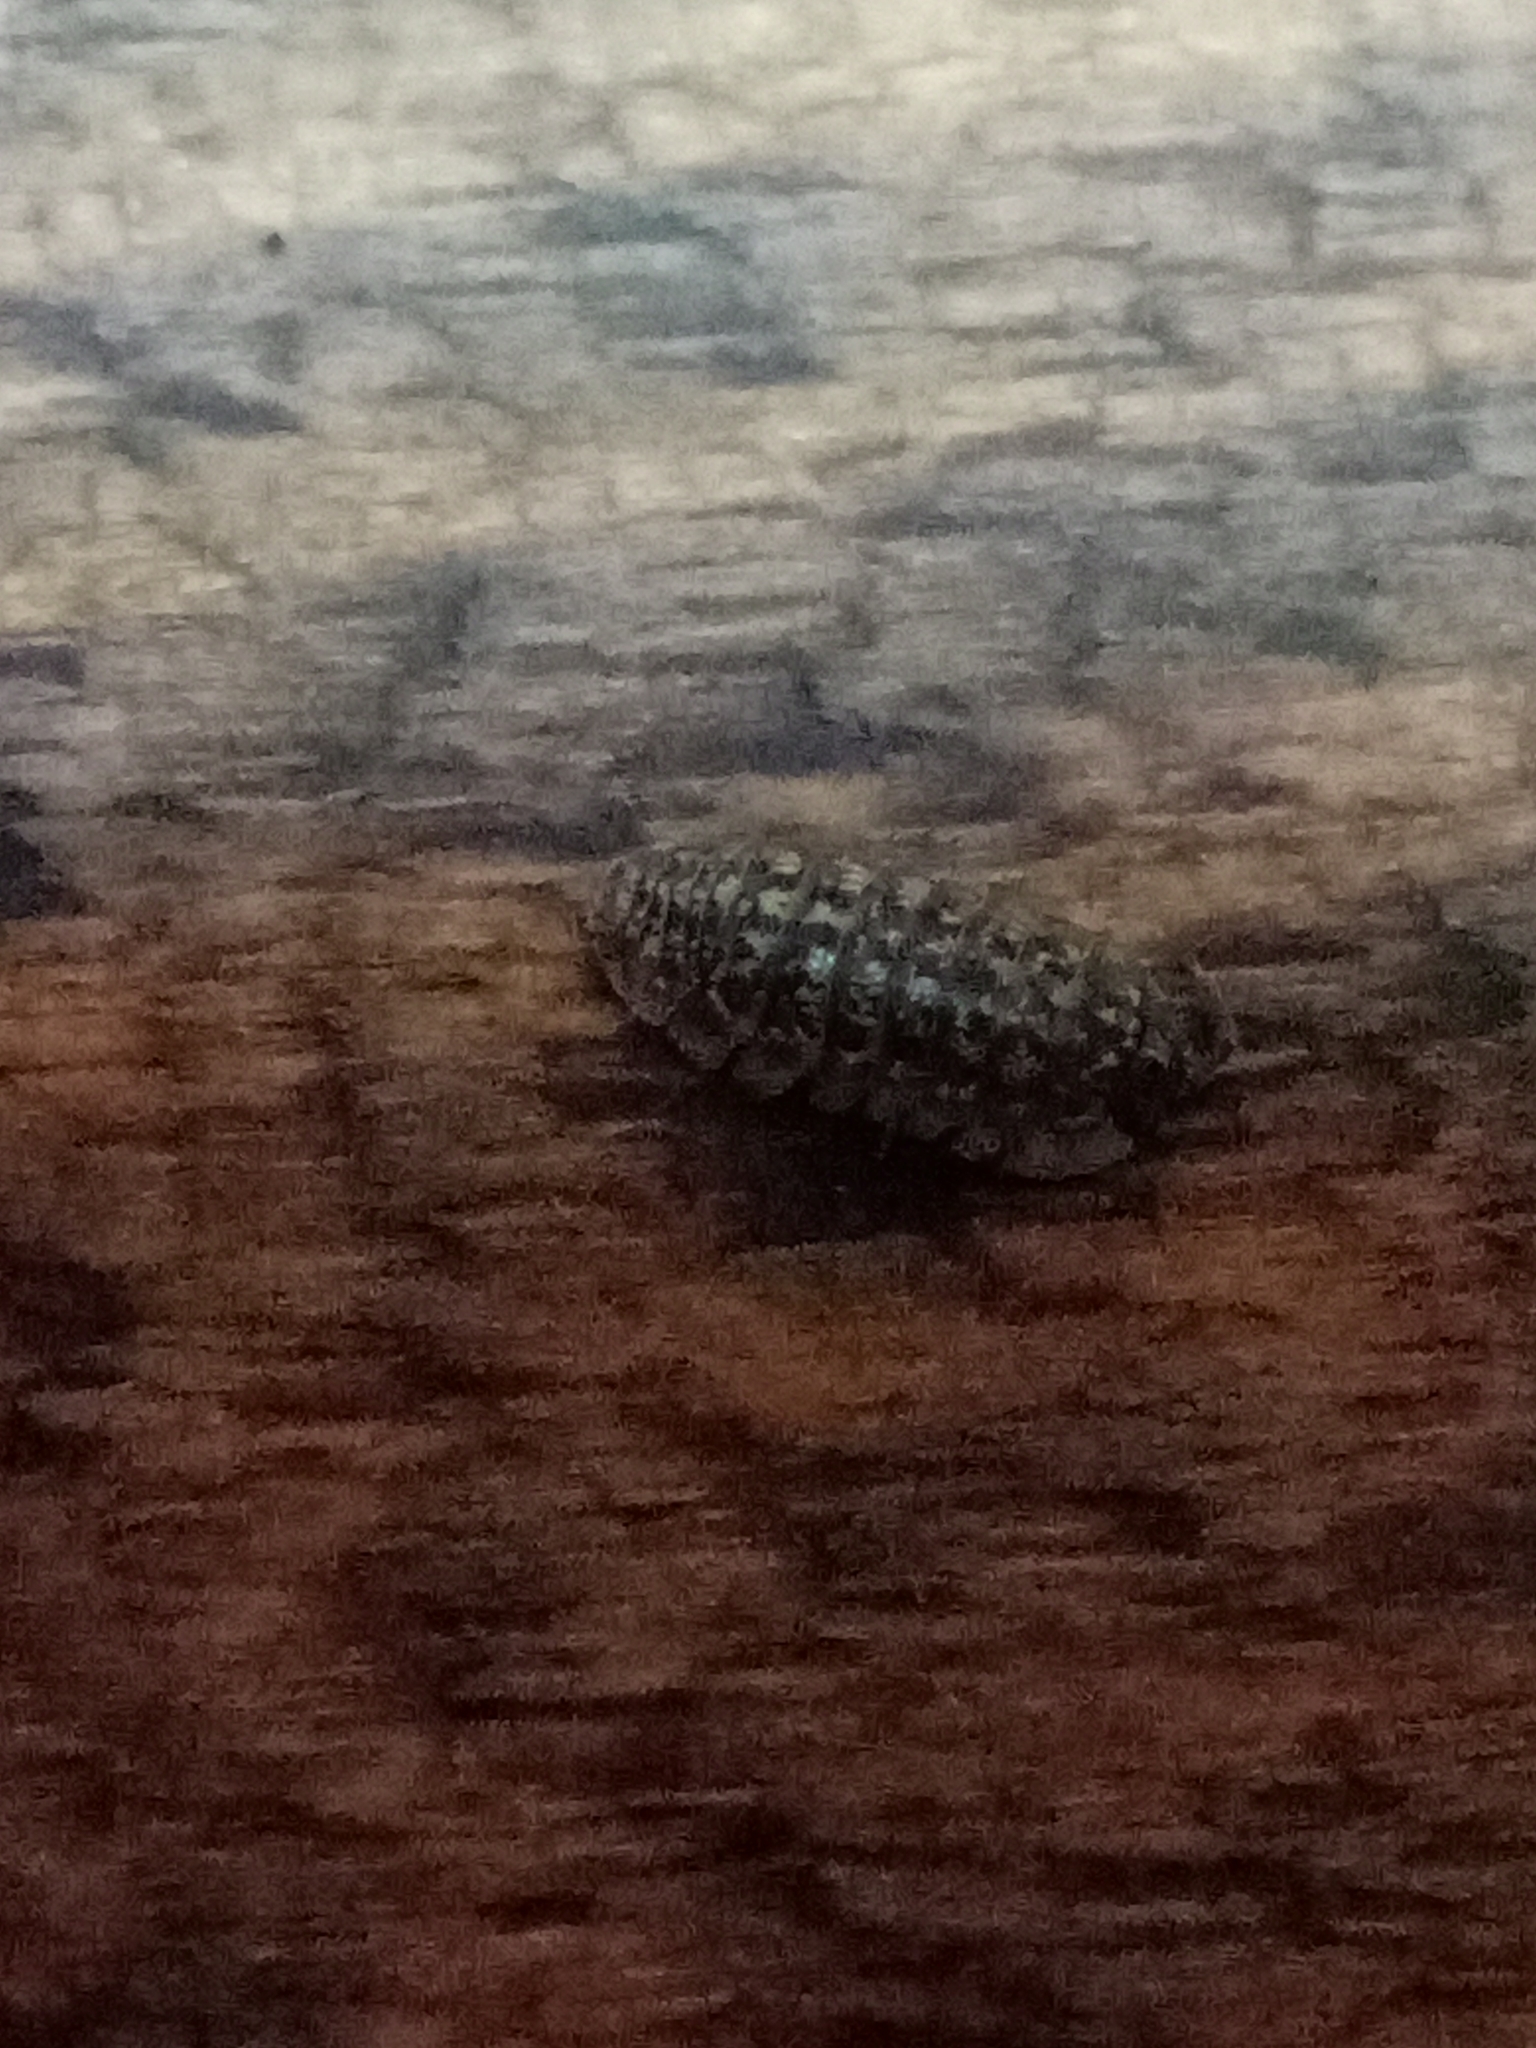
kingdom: Animalia
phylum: Arthropoda
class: Malacostraca
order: Isopoda
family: Armadillidiidae
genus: Armadillidium
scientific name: Armadillidium versicolor
